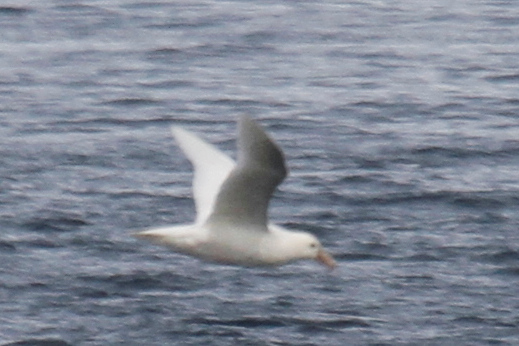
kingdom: Animalia
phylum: Chordata
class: Aves
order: Procellariiformes
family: Procellariidae
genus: Macronectes
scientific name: Macronectes giganteus
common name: Southern giant petrel
